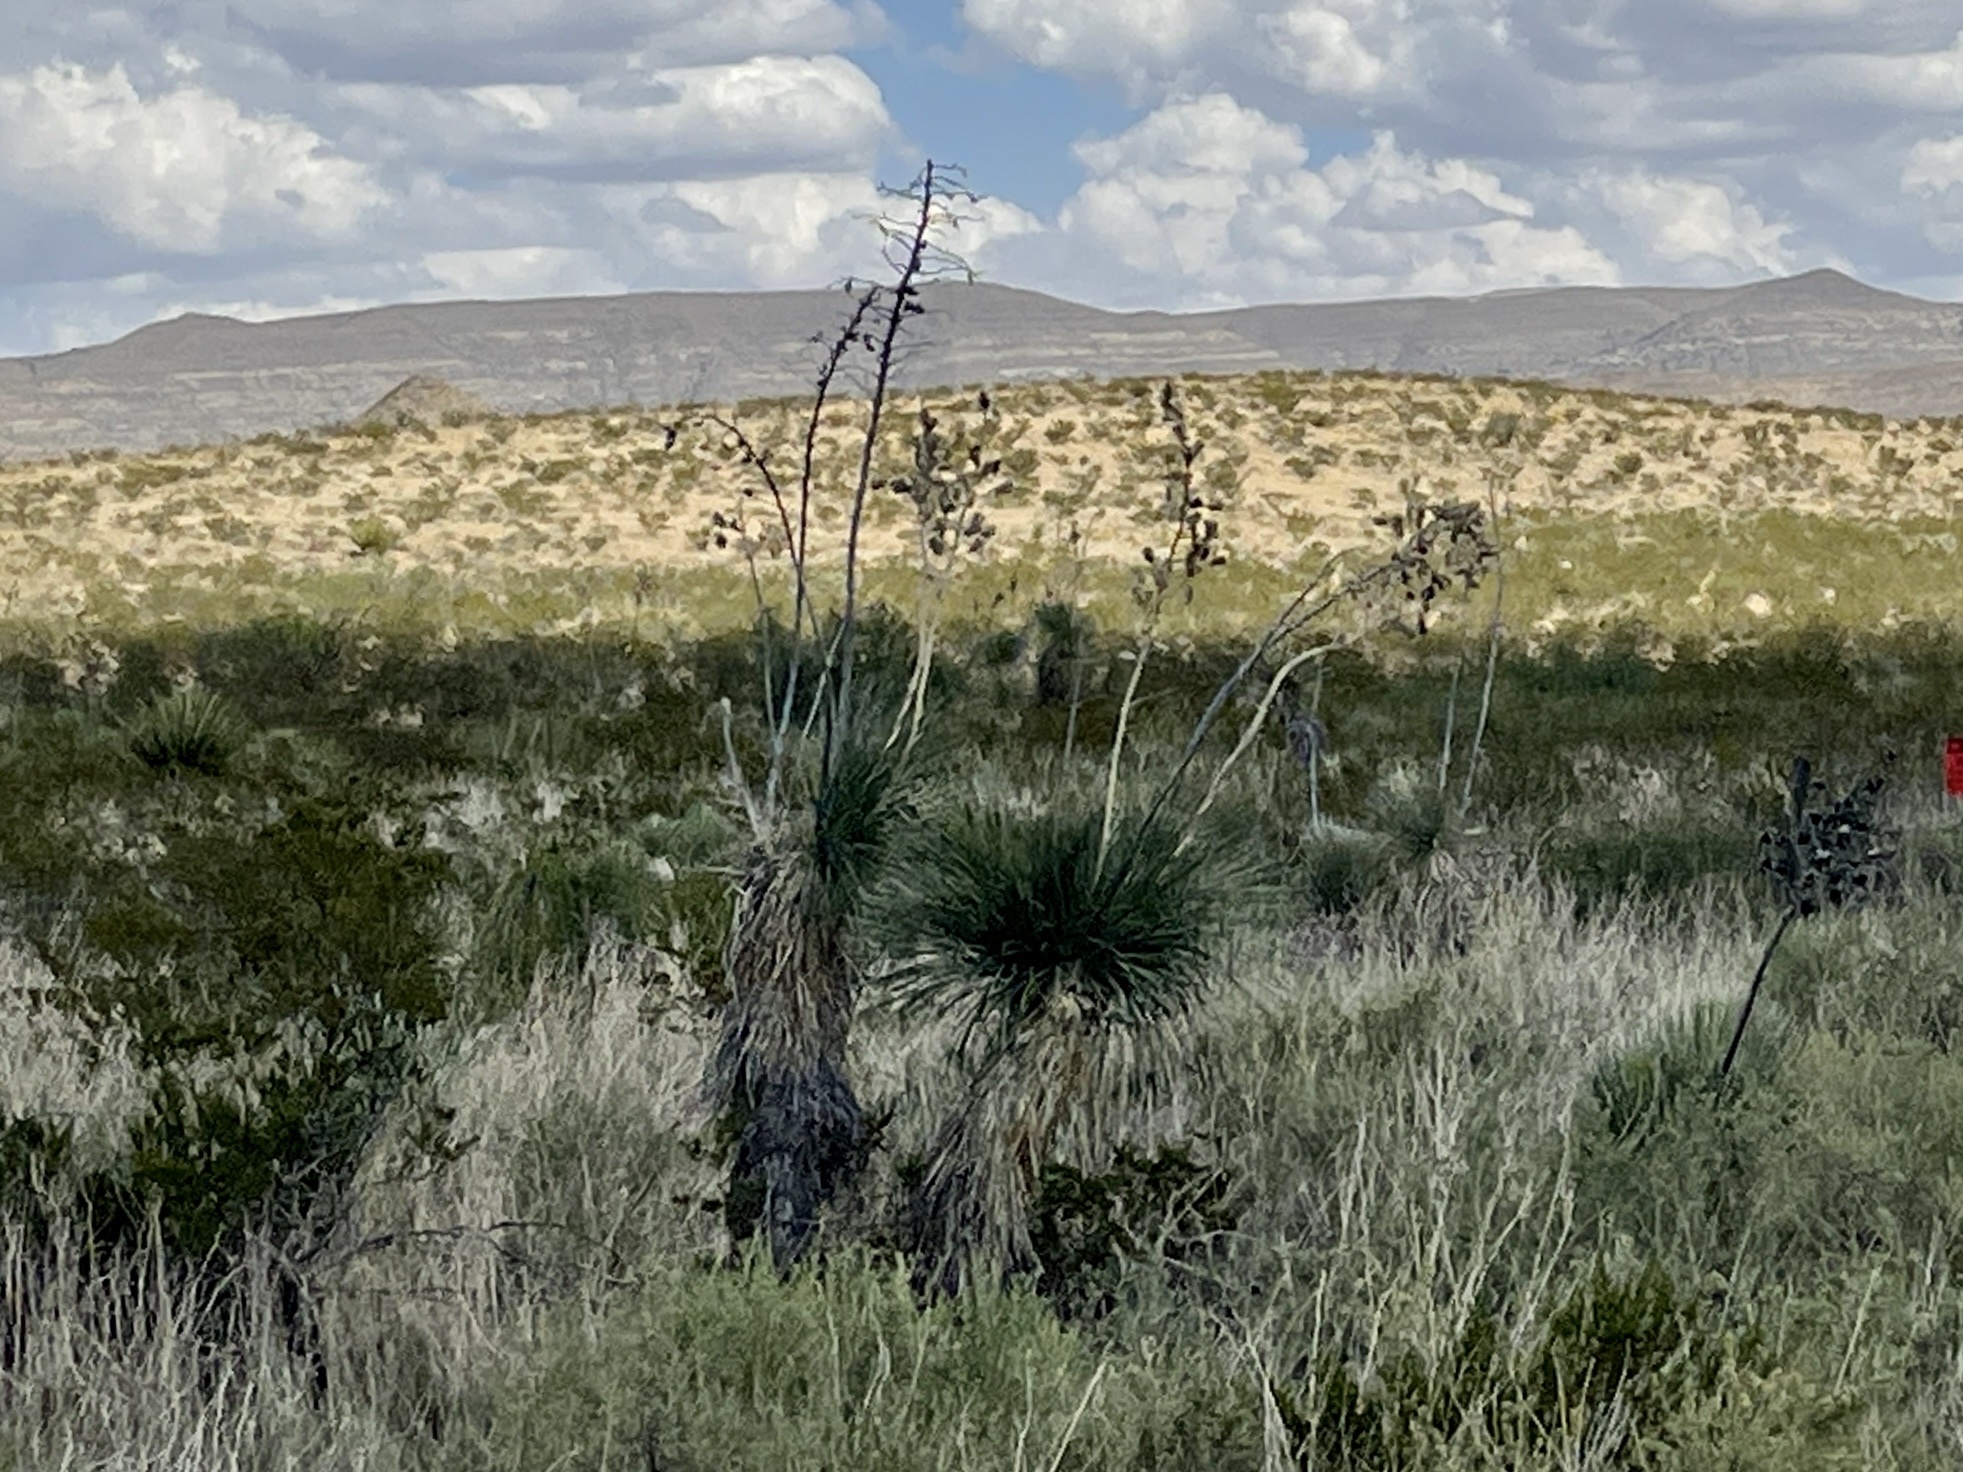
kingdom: Plantae
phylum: Tracheophyta
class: Liliopsida
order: Asparagales
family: Asparagaceae
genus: Yucca
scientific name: Yucca elata
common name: Palmella
